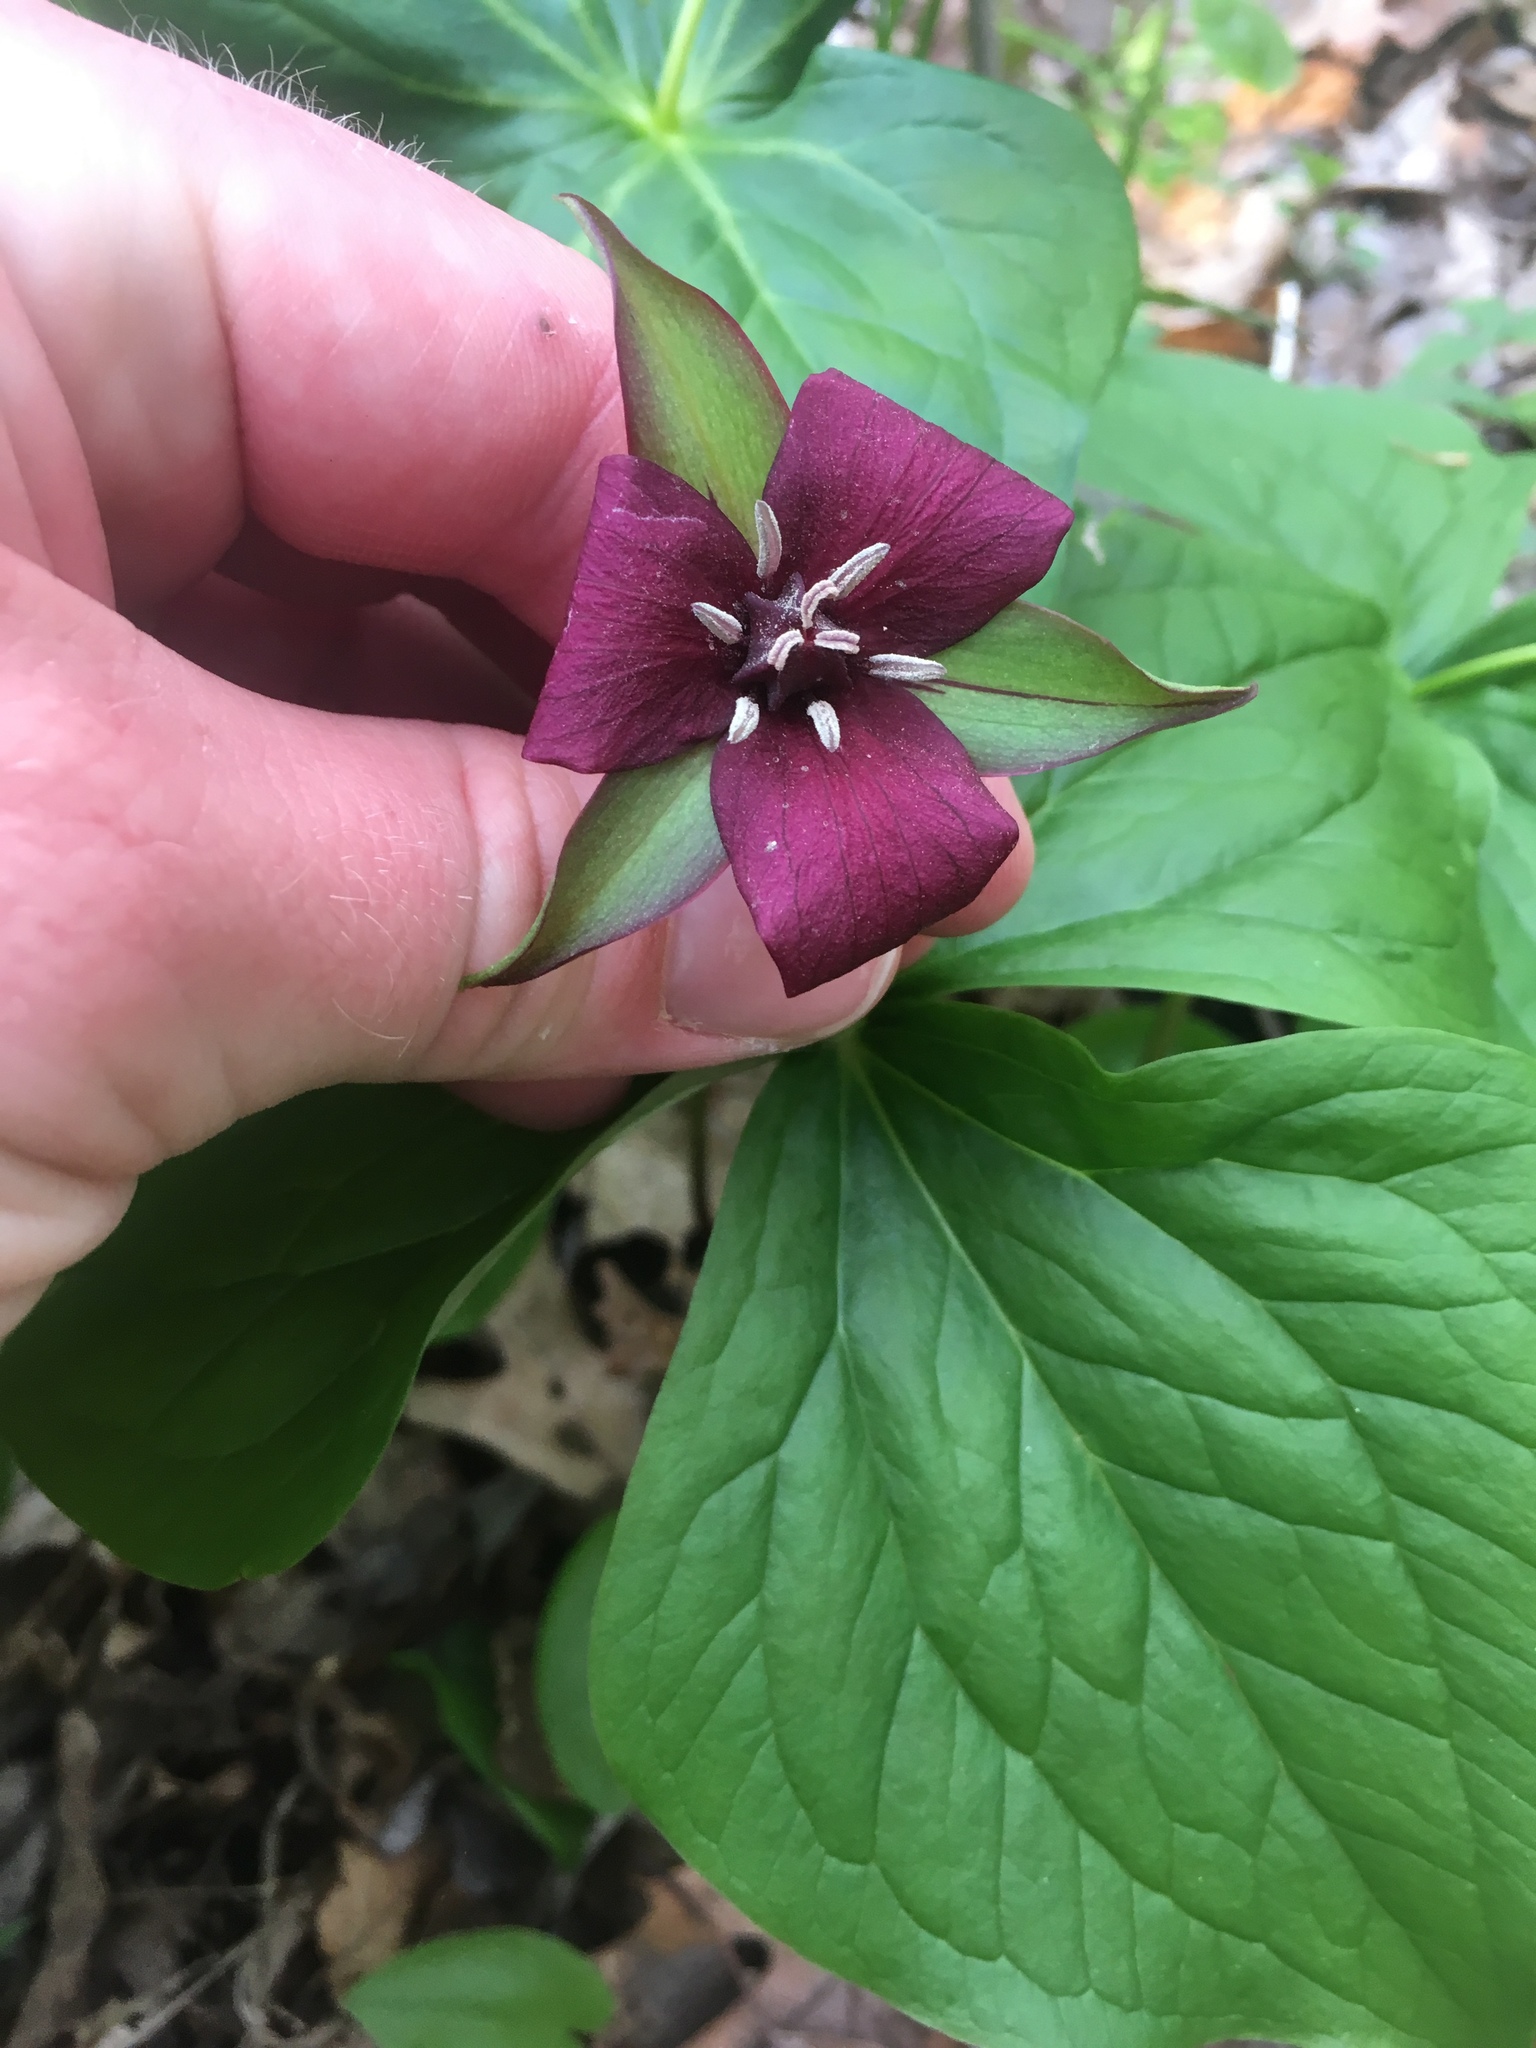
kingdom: Plantae
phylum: Tracheophyta
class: Liliopsida
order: Liliales
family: Melanthiaceae
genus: Trillium
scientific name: Trillium erectum
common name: Purple trillium
